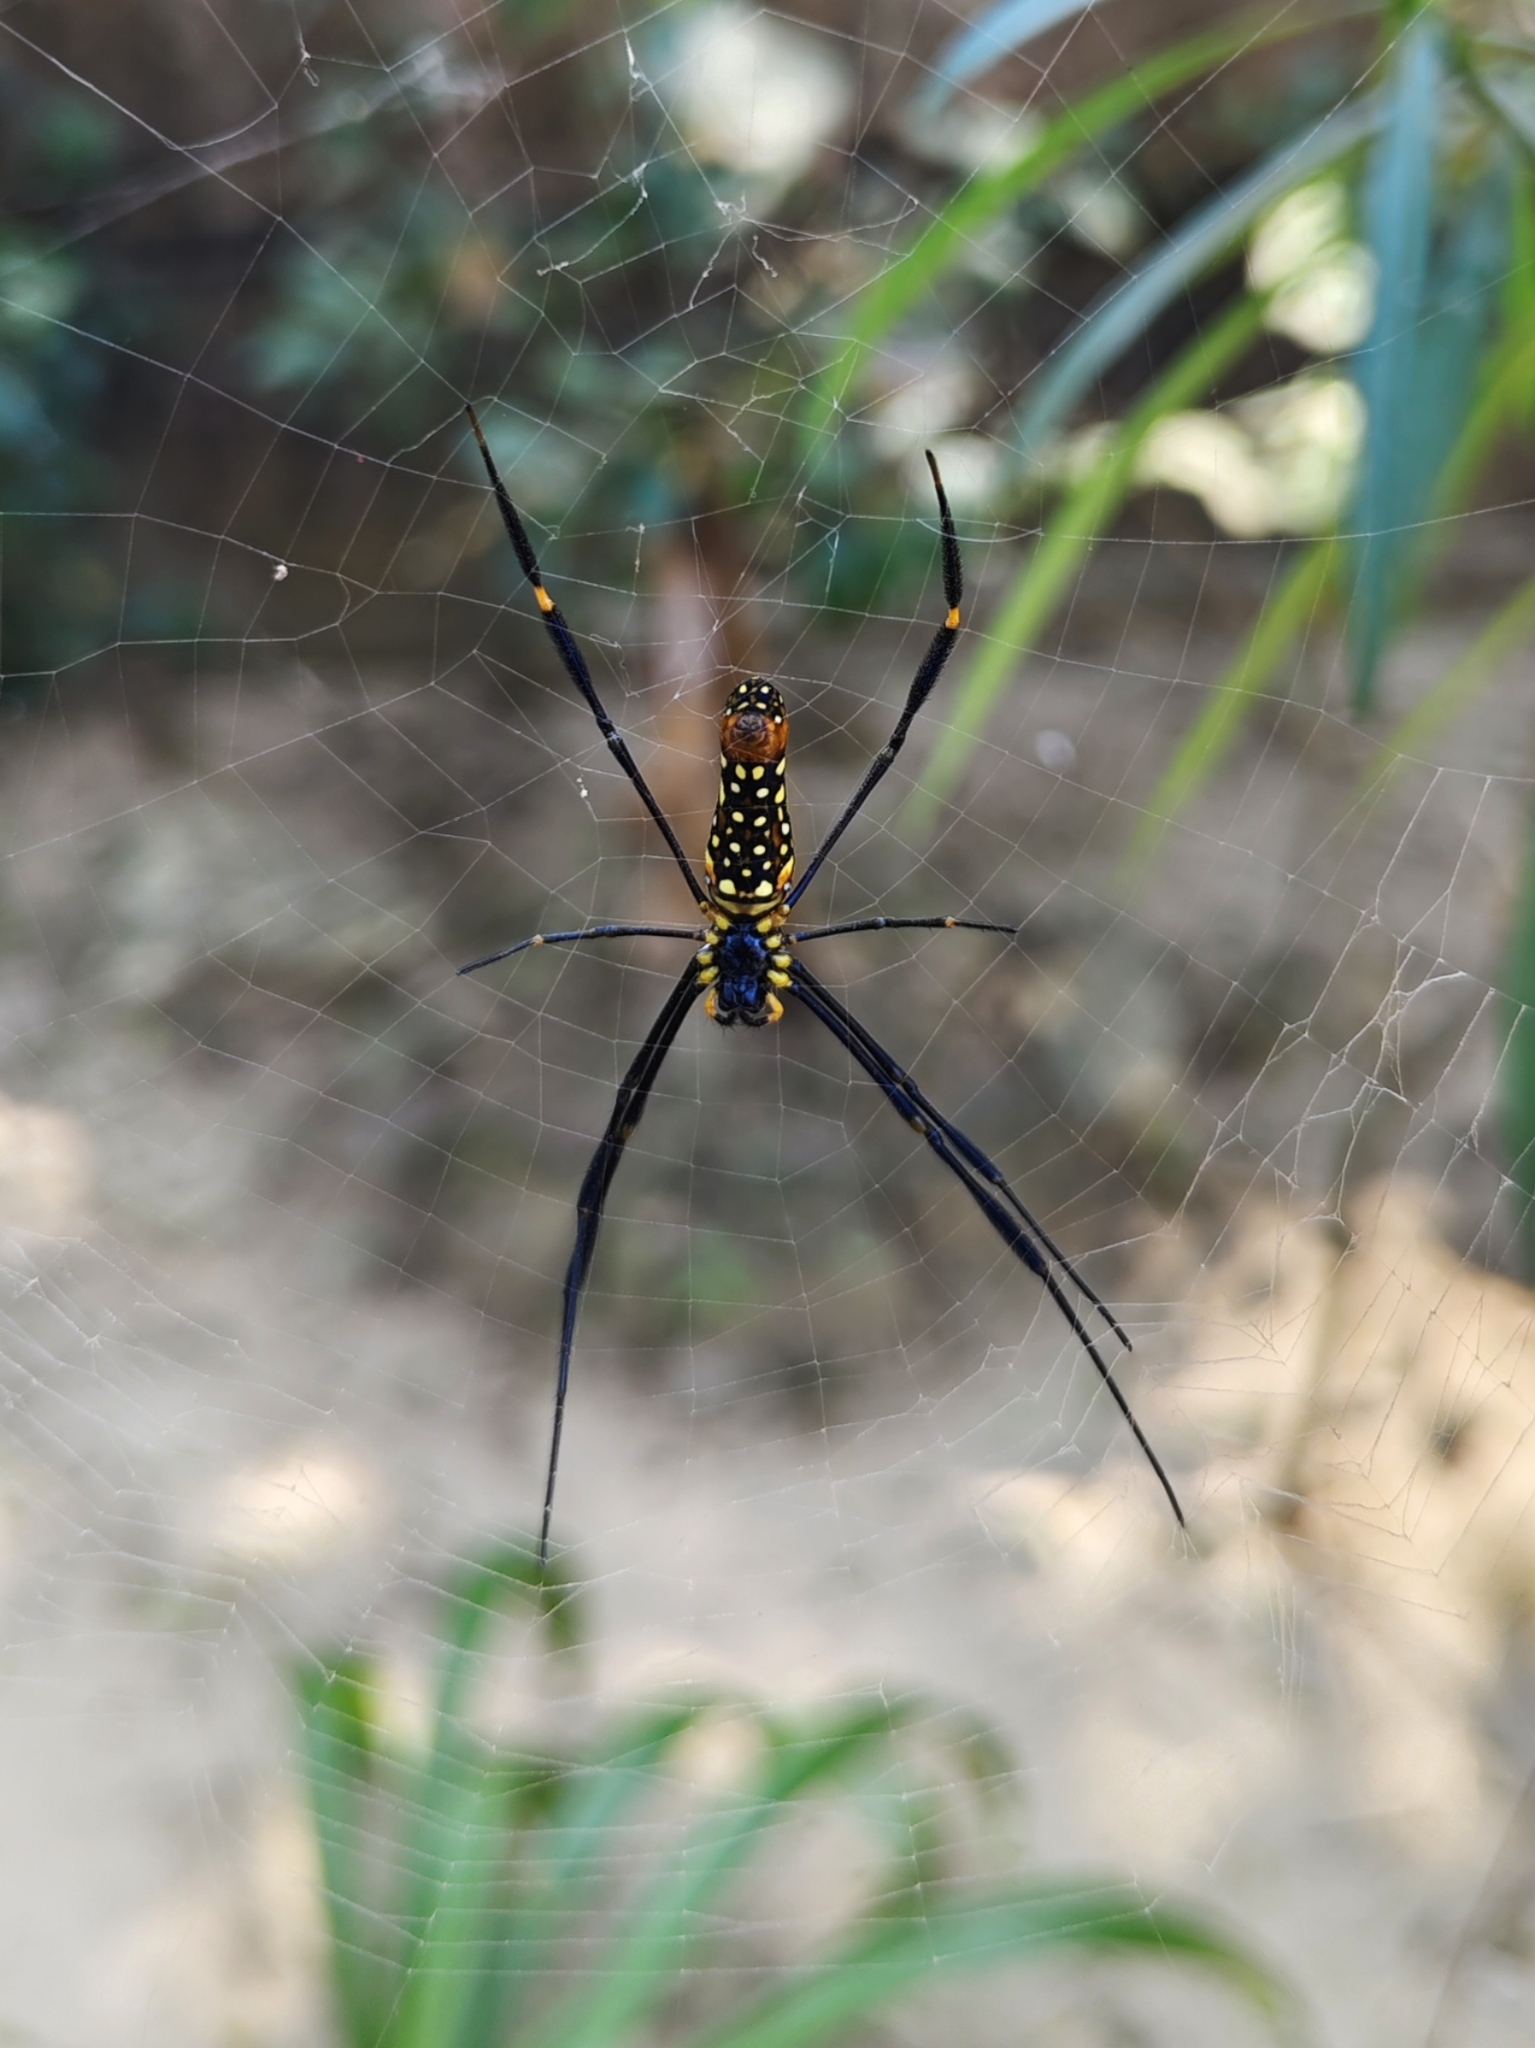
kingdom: Animalia
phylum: Arthropoda
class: Arachnida
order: Araneae
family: Araneidae
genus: Nephila
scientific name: Nephila pilipes
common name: Giant golden orb weaver
